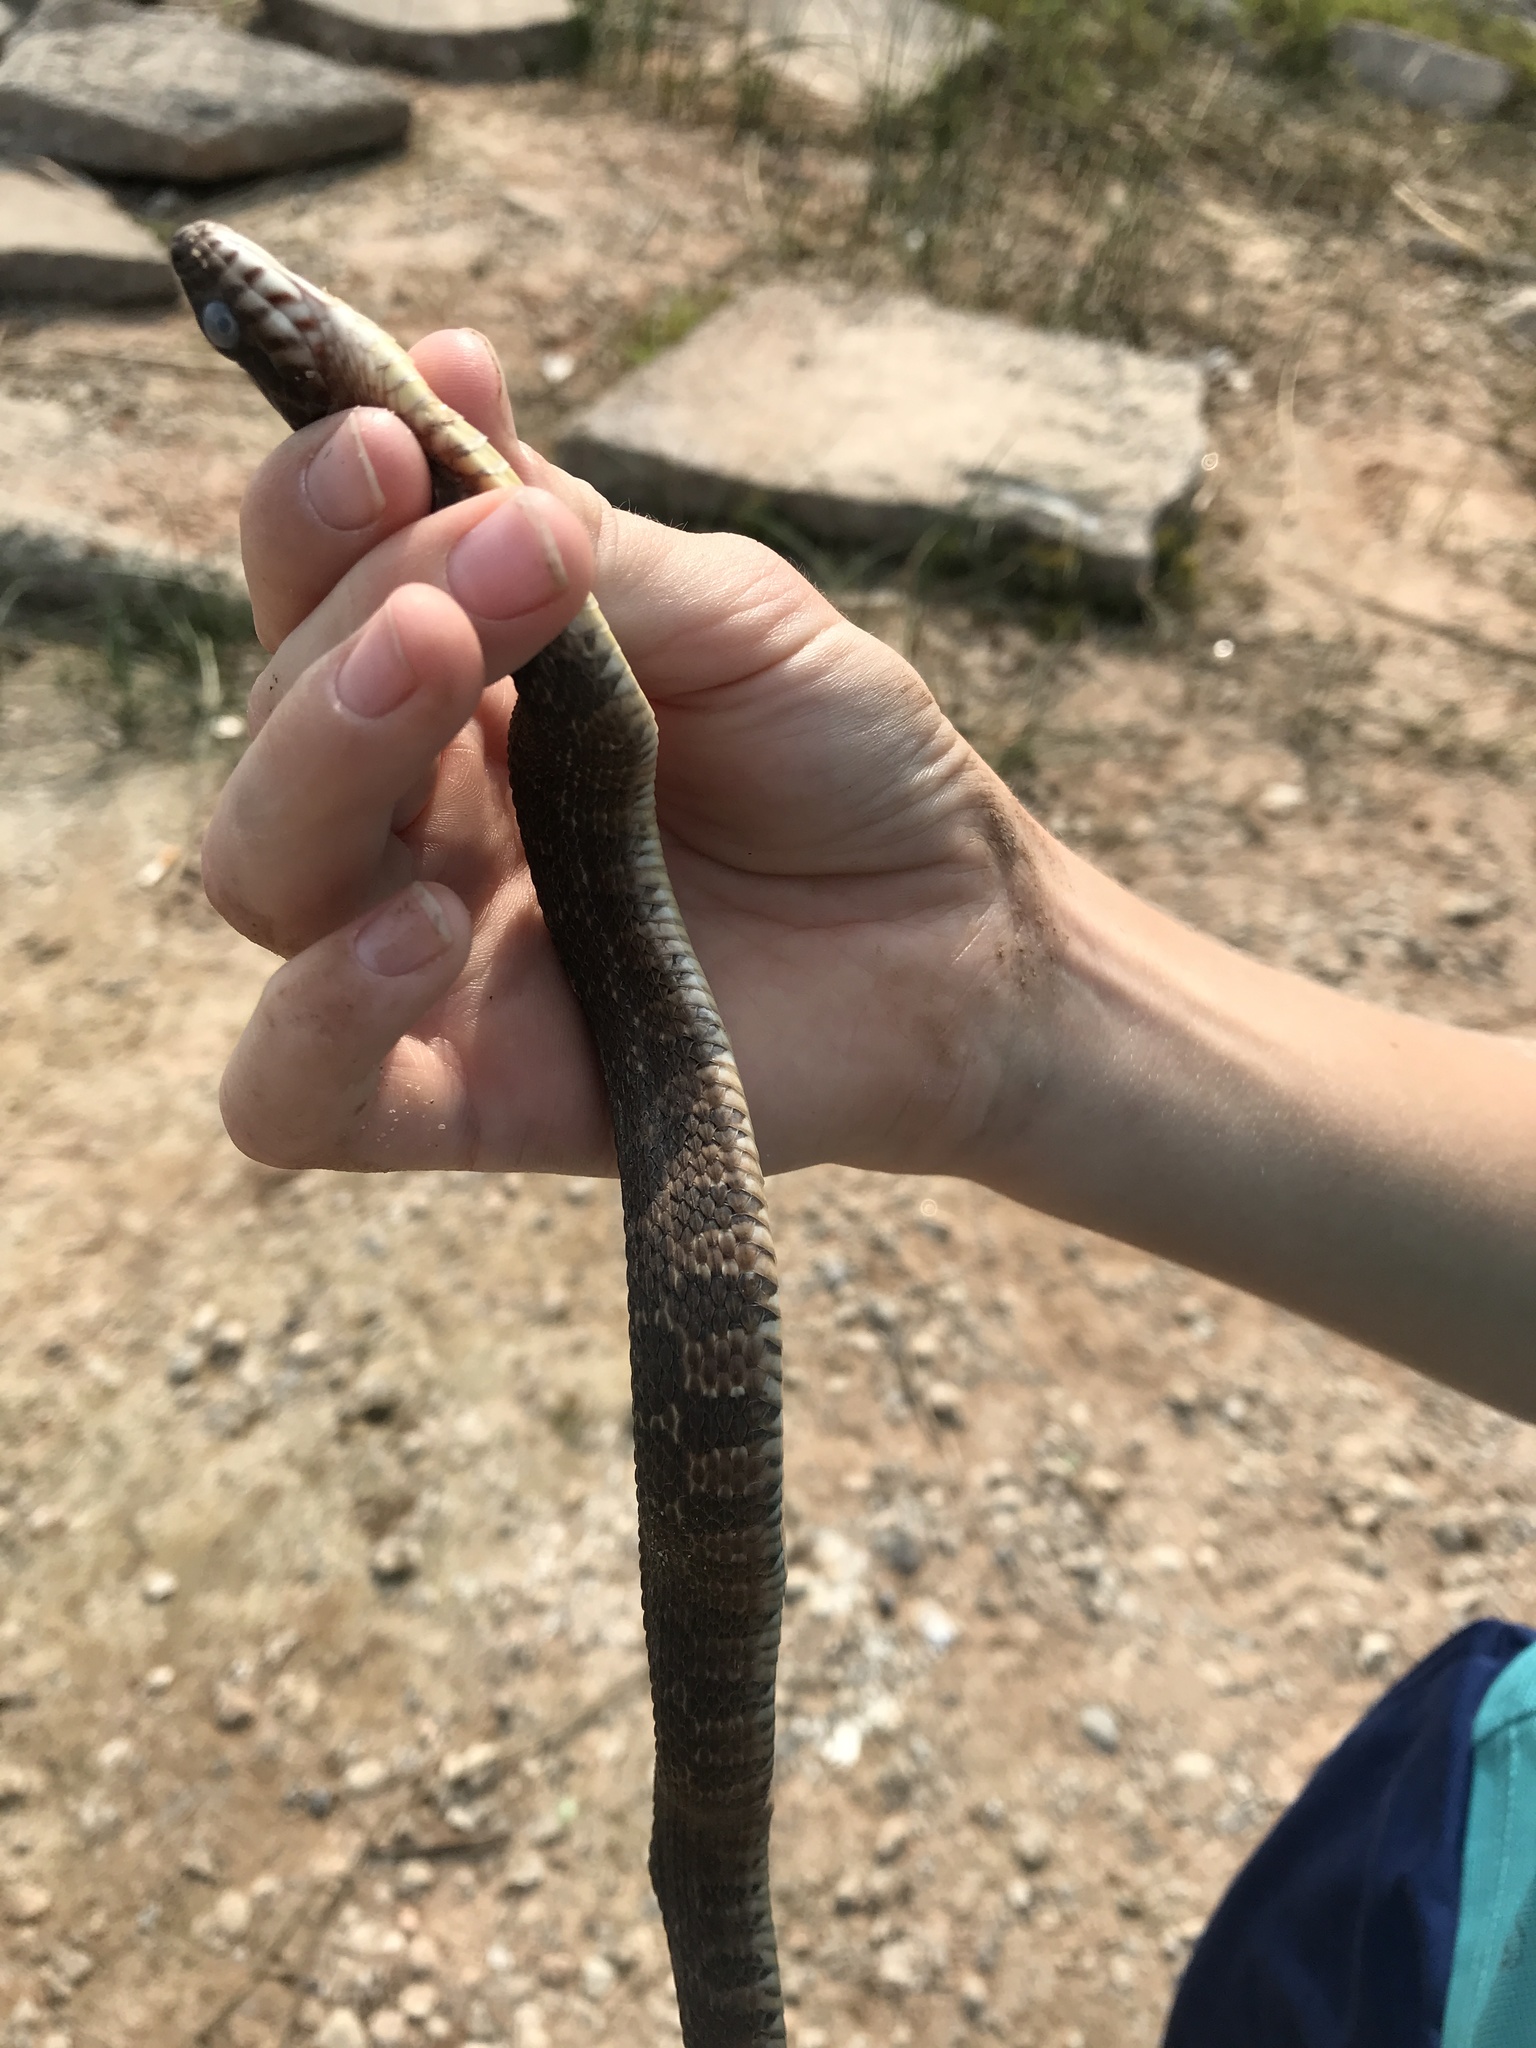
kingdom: Animalia
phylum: Chordata
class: Squamata
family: Colubridae
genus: Nerodia
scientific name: Nerodia erythrogaster
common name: Plainbelly water snake
